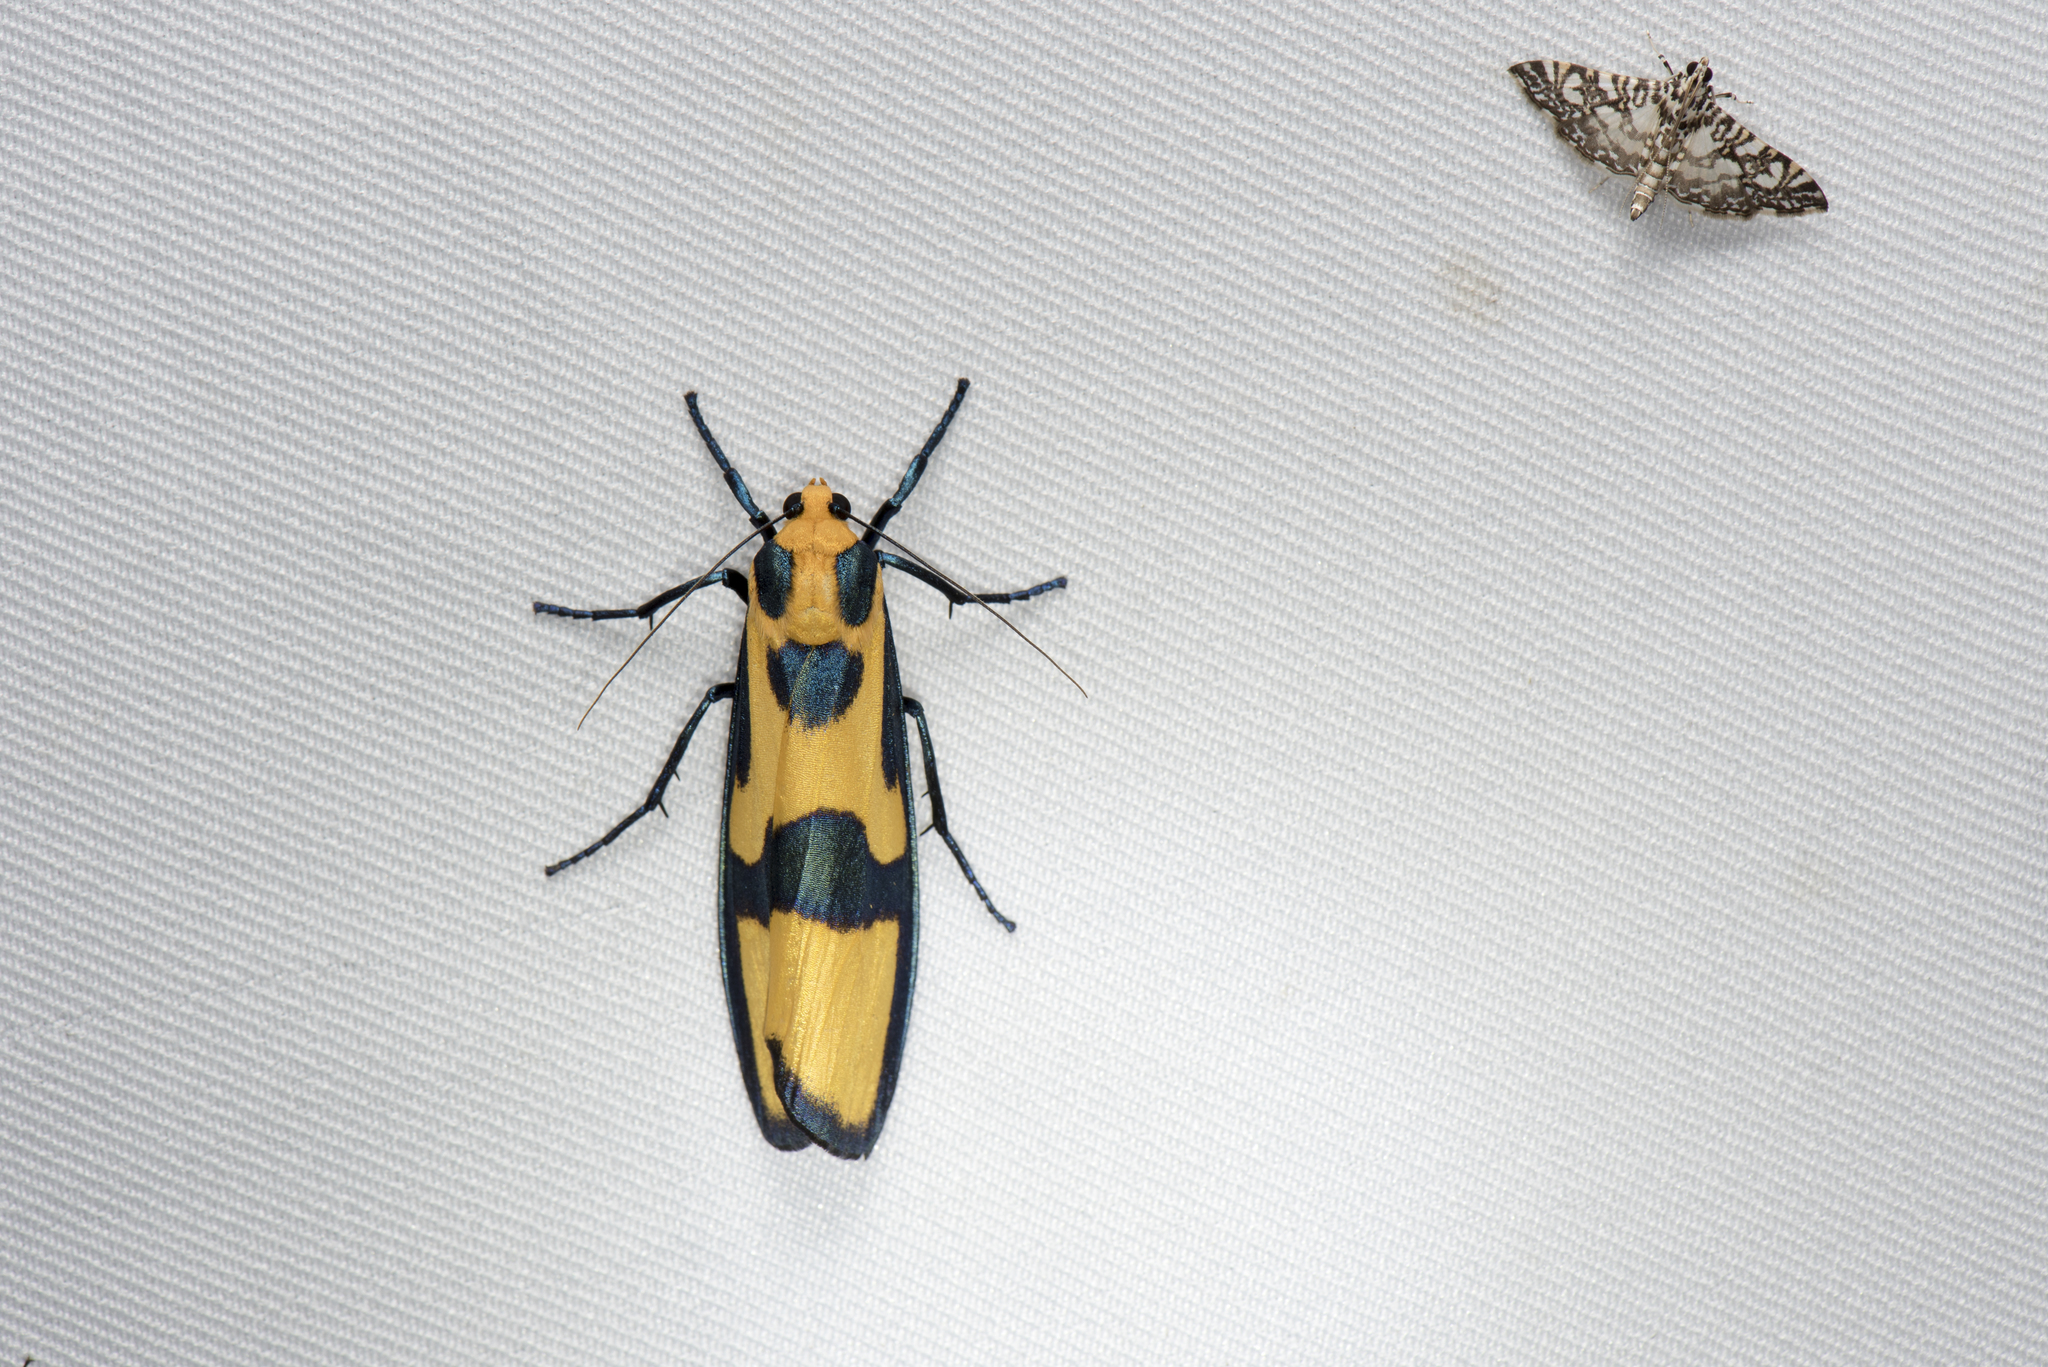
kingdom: Animalia
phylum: Arthropoda
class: Insecta
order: Lepidoptera
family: Erebidae
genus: Chrysaeglia
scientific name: Chrysaeglia magnifica
